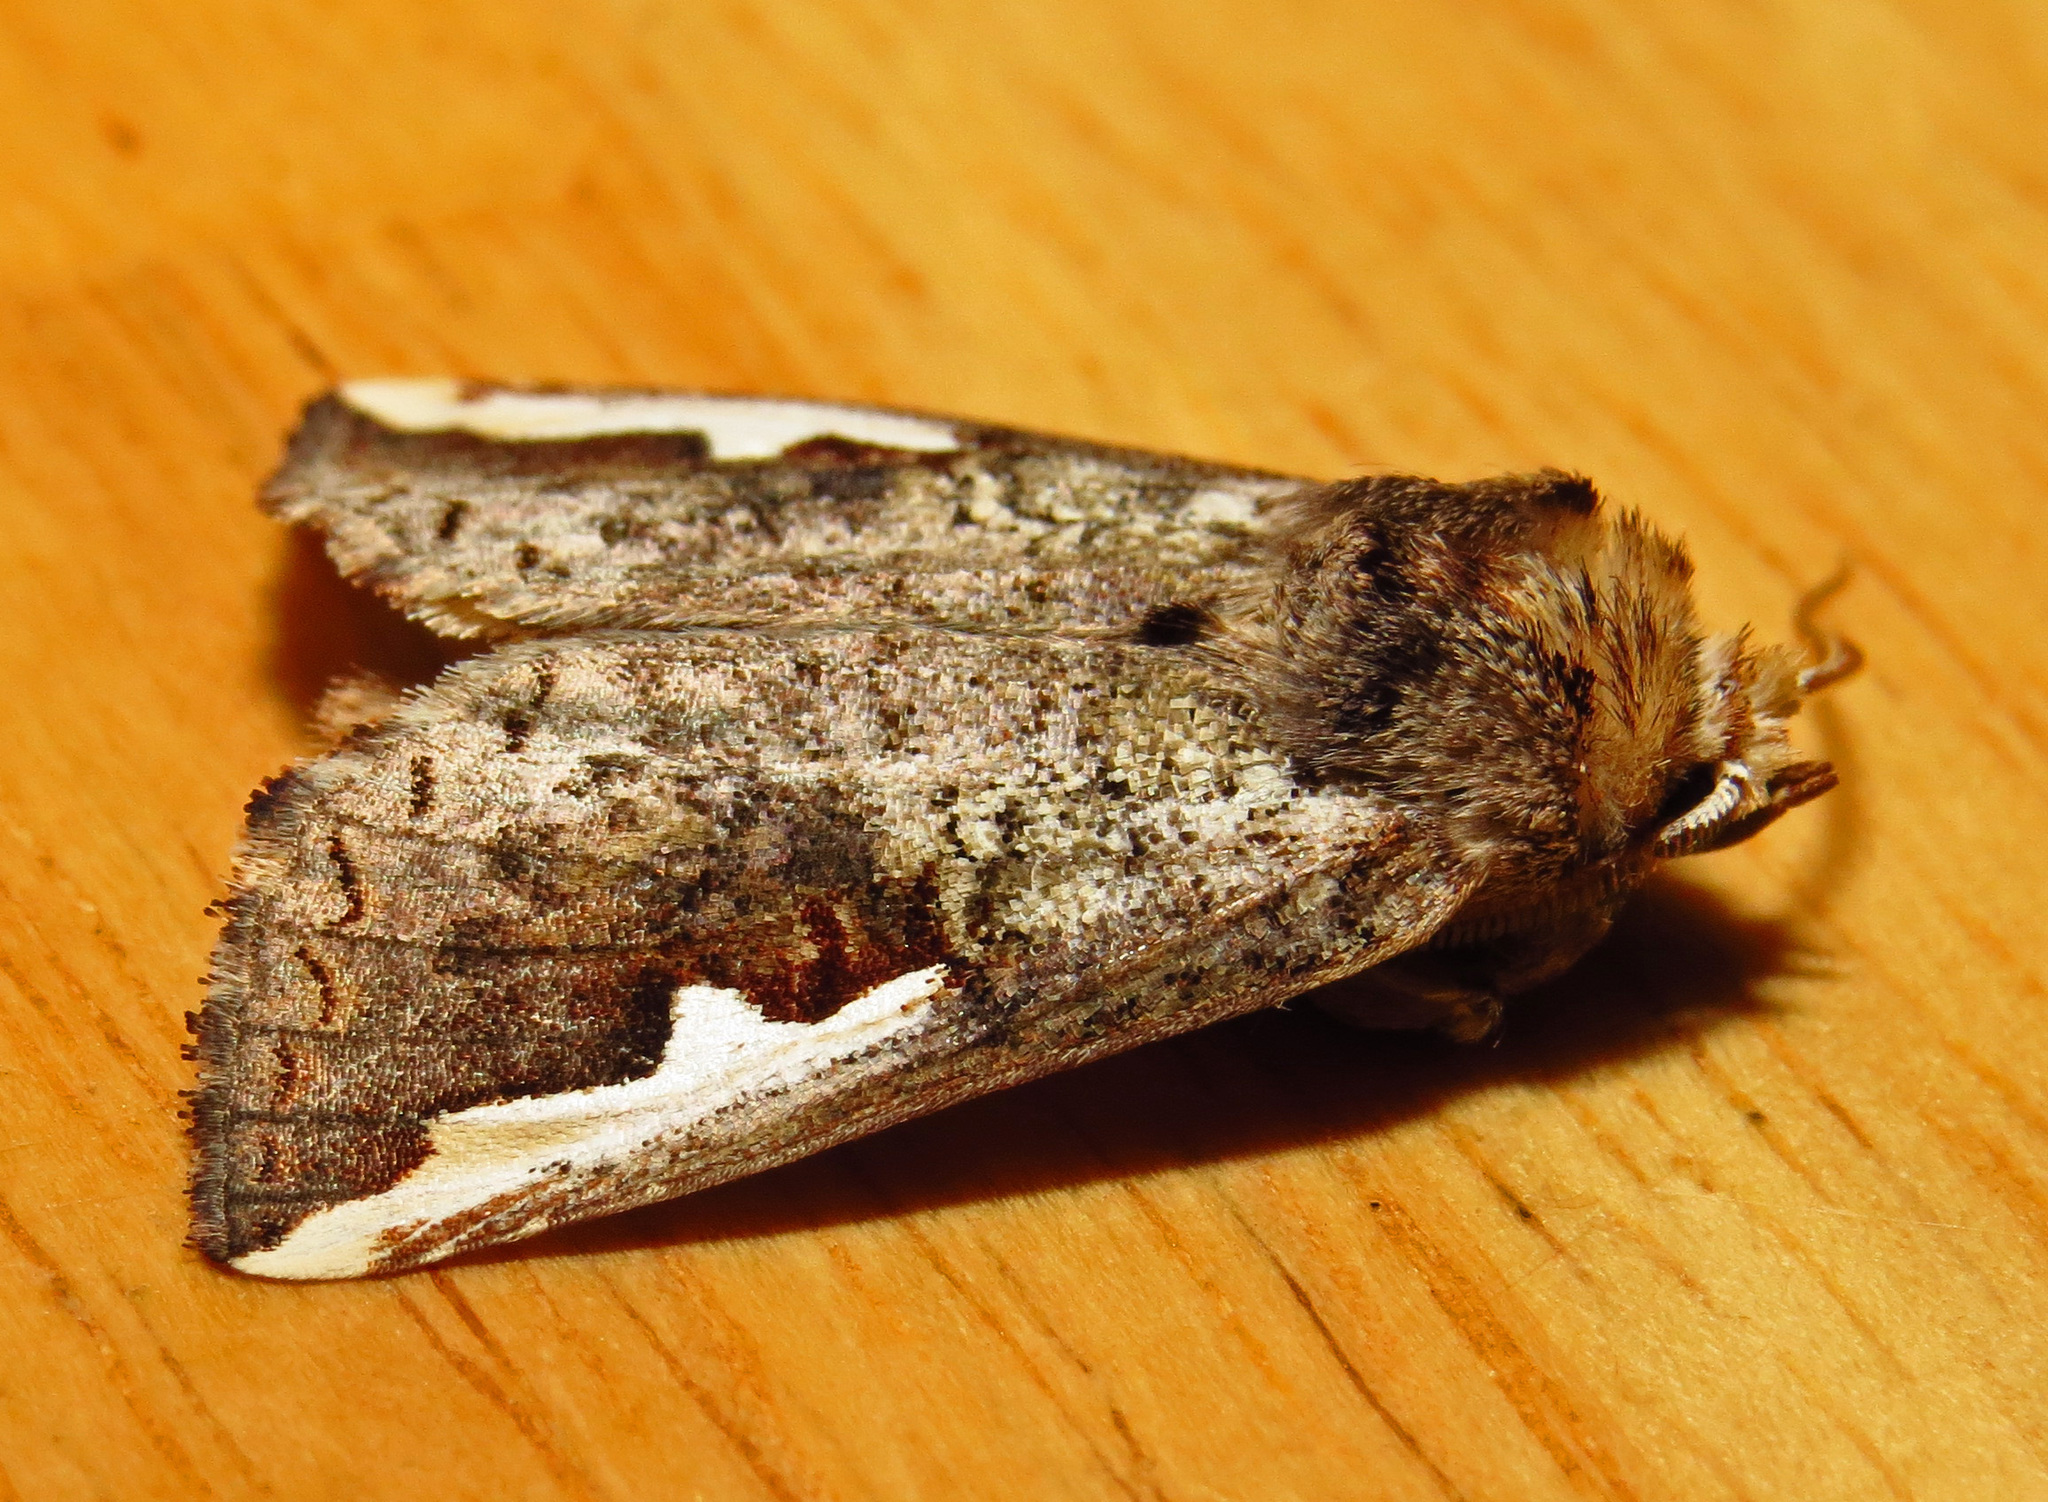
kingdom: Animalia
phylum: Arthropoda
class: Insecta
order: Lepidoptera
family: Notodontidae
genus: Symmerista
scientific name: Symmerista
